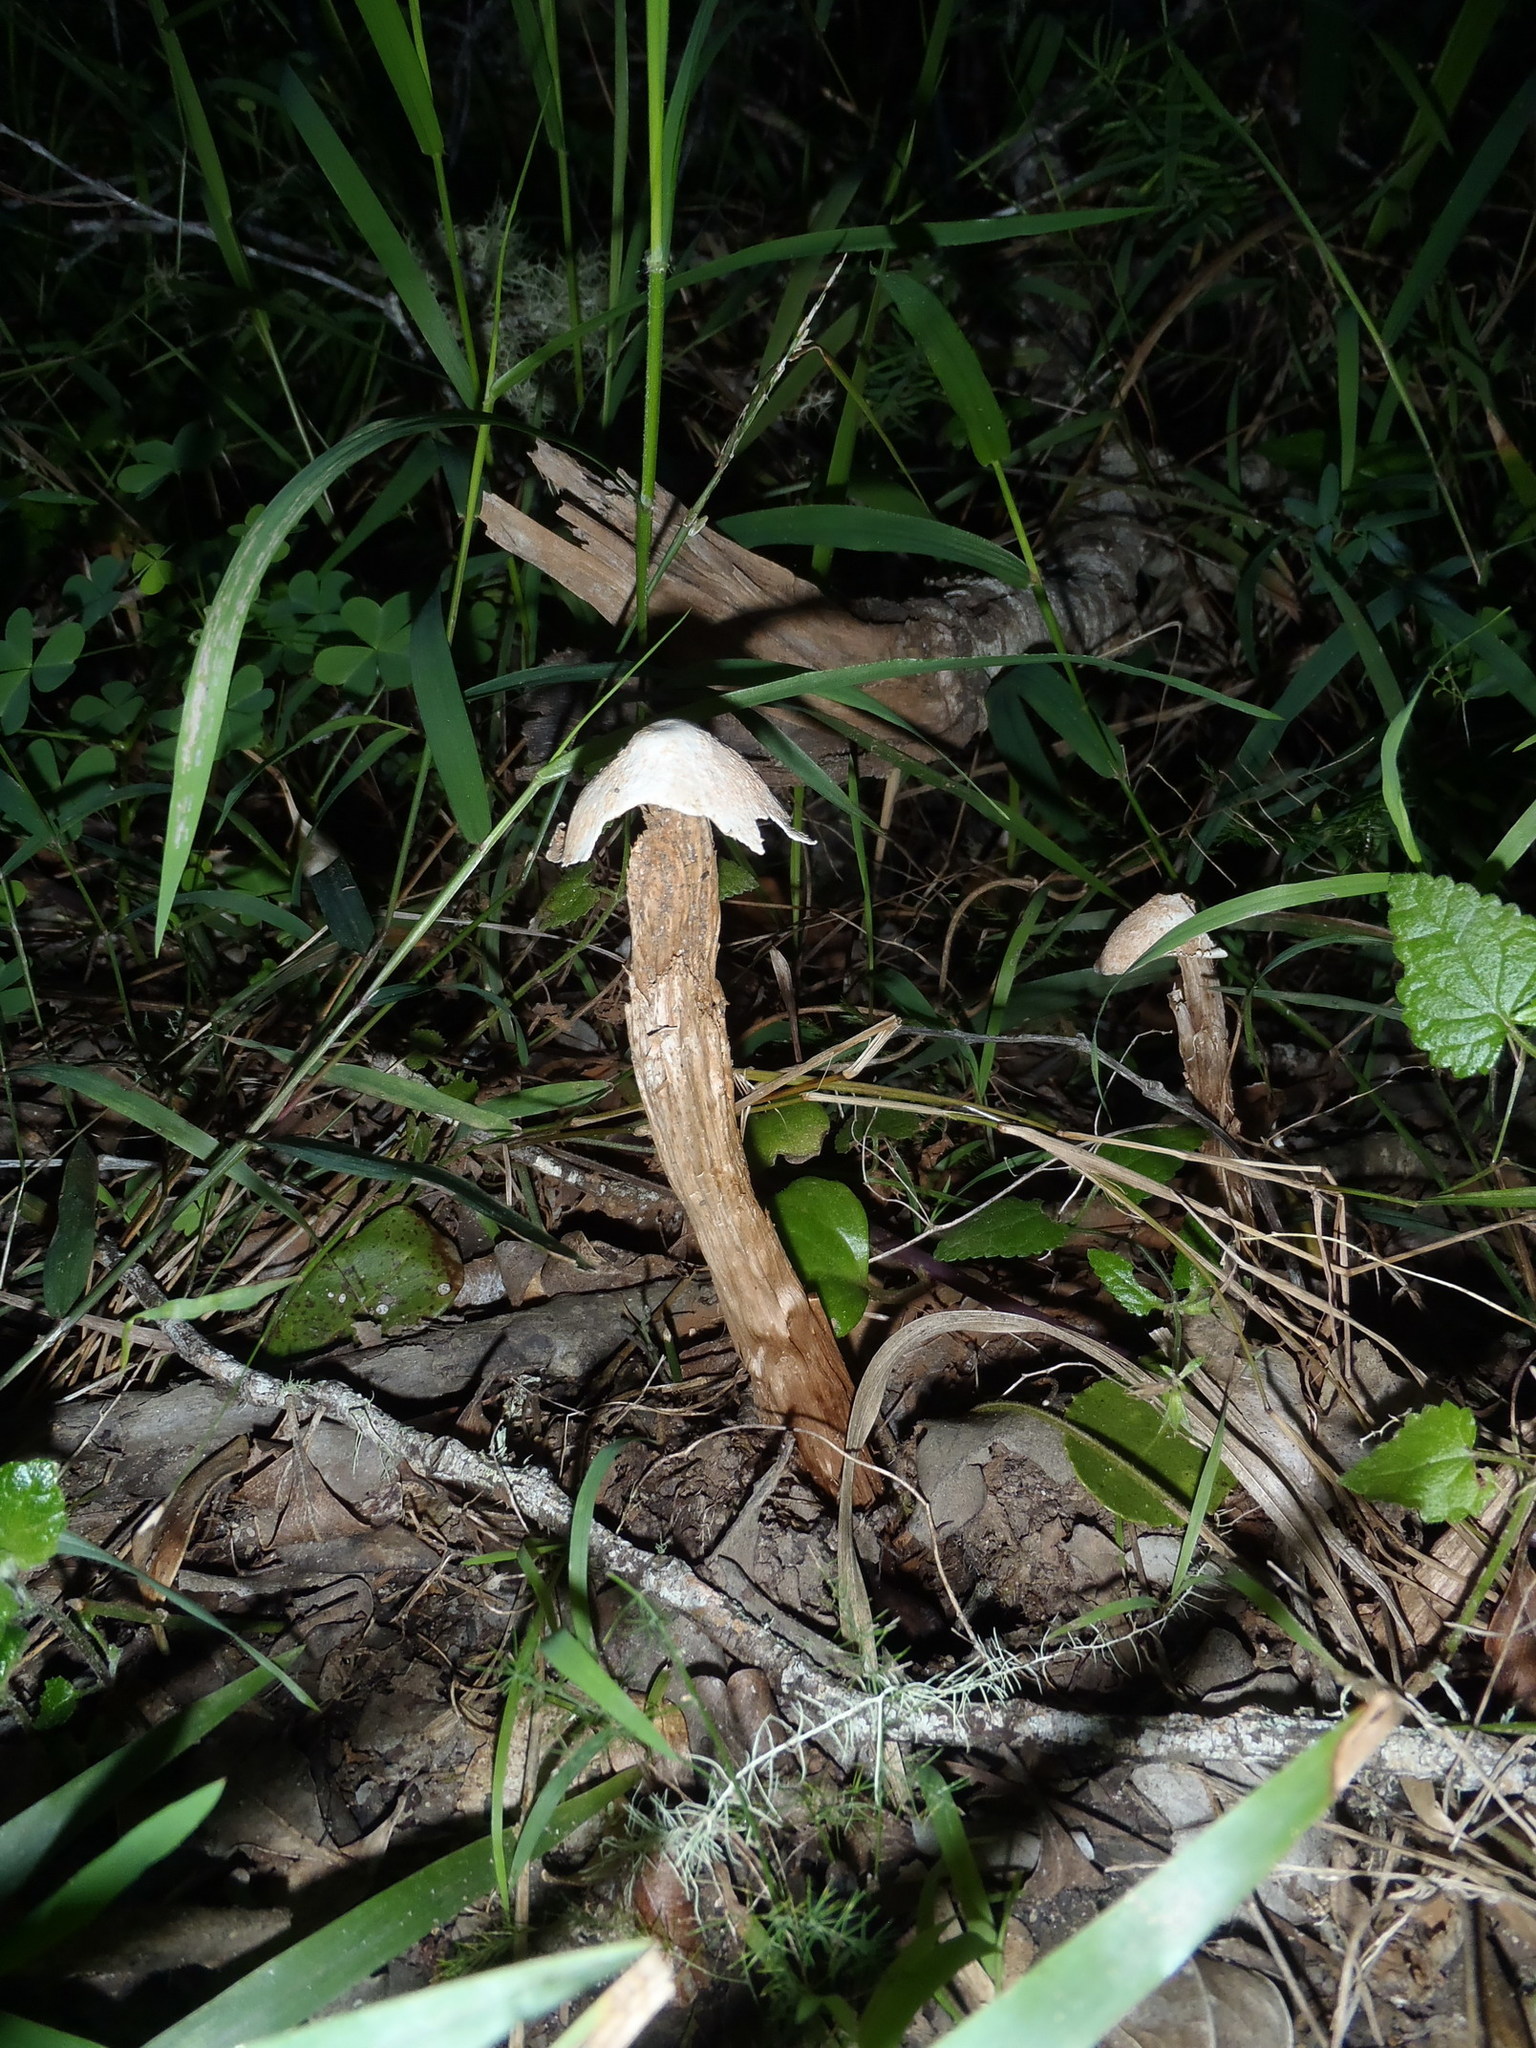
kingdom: Fungi
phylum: Basidiomycota
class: Agaricomycetes
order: Agaricales
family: Agaricaceae
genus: Battarrea
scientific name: Battarrea phalloides
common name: Sandy stiltball
